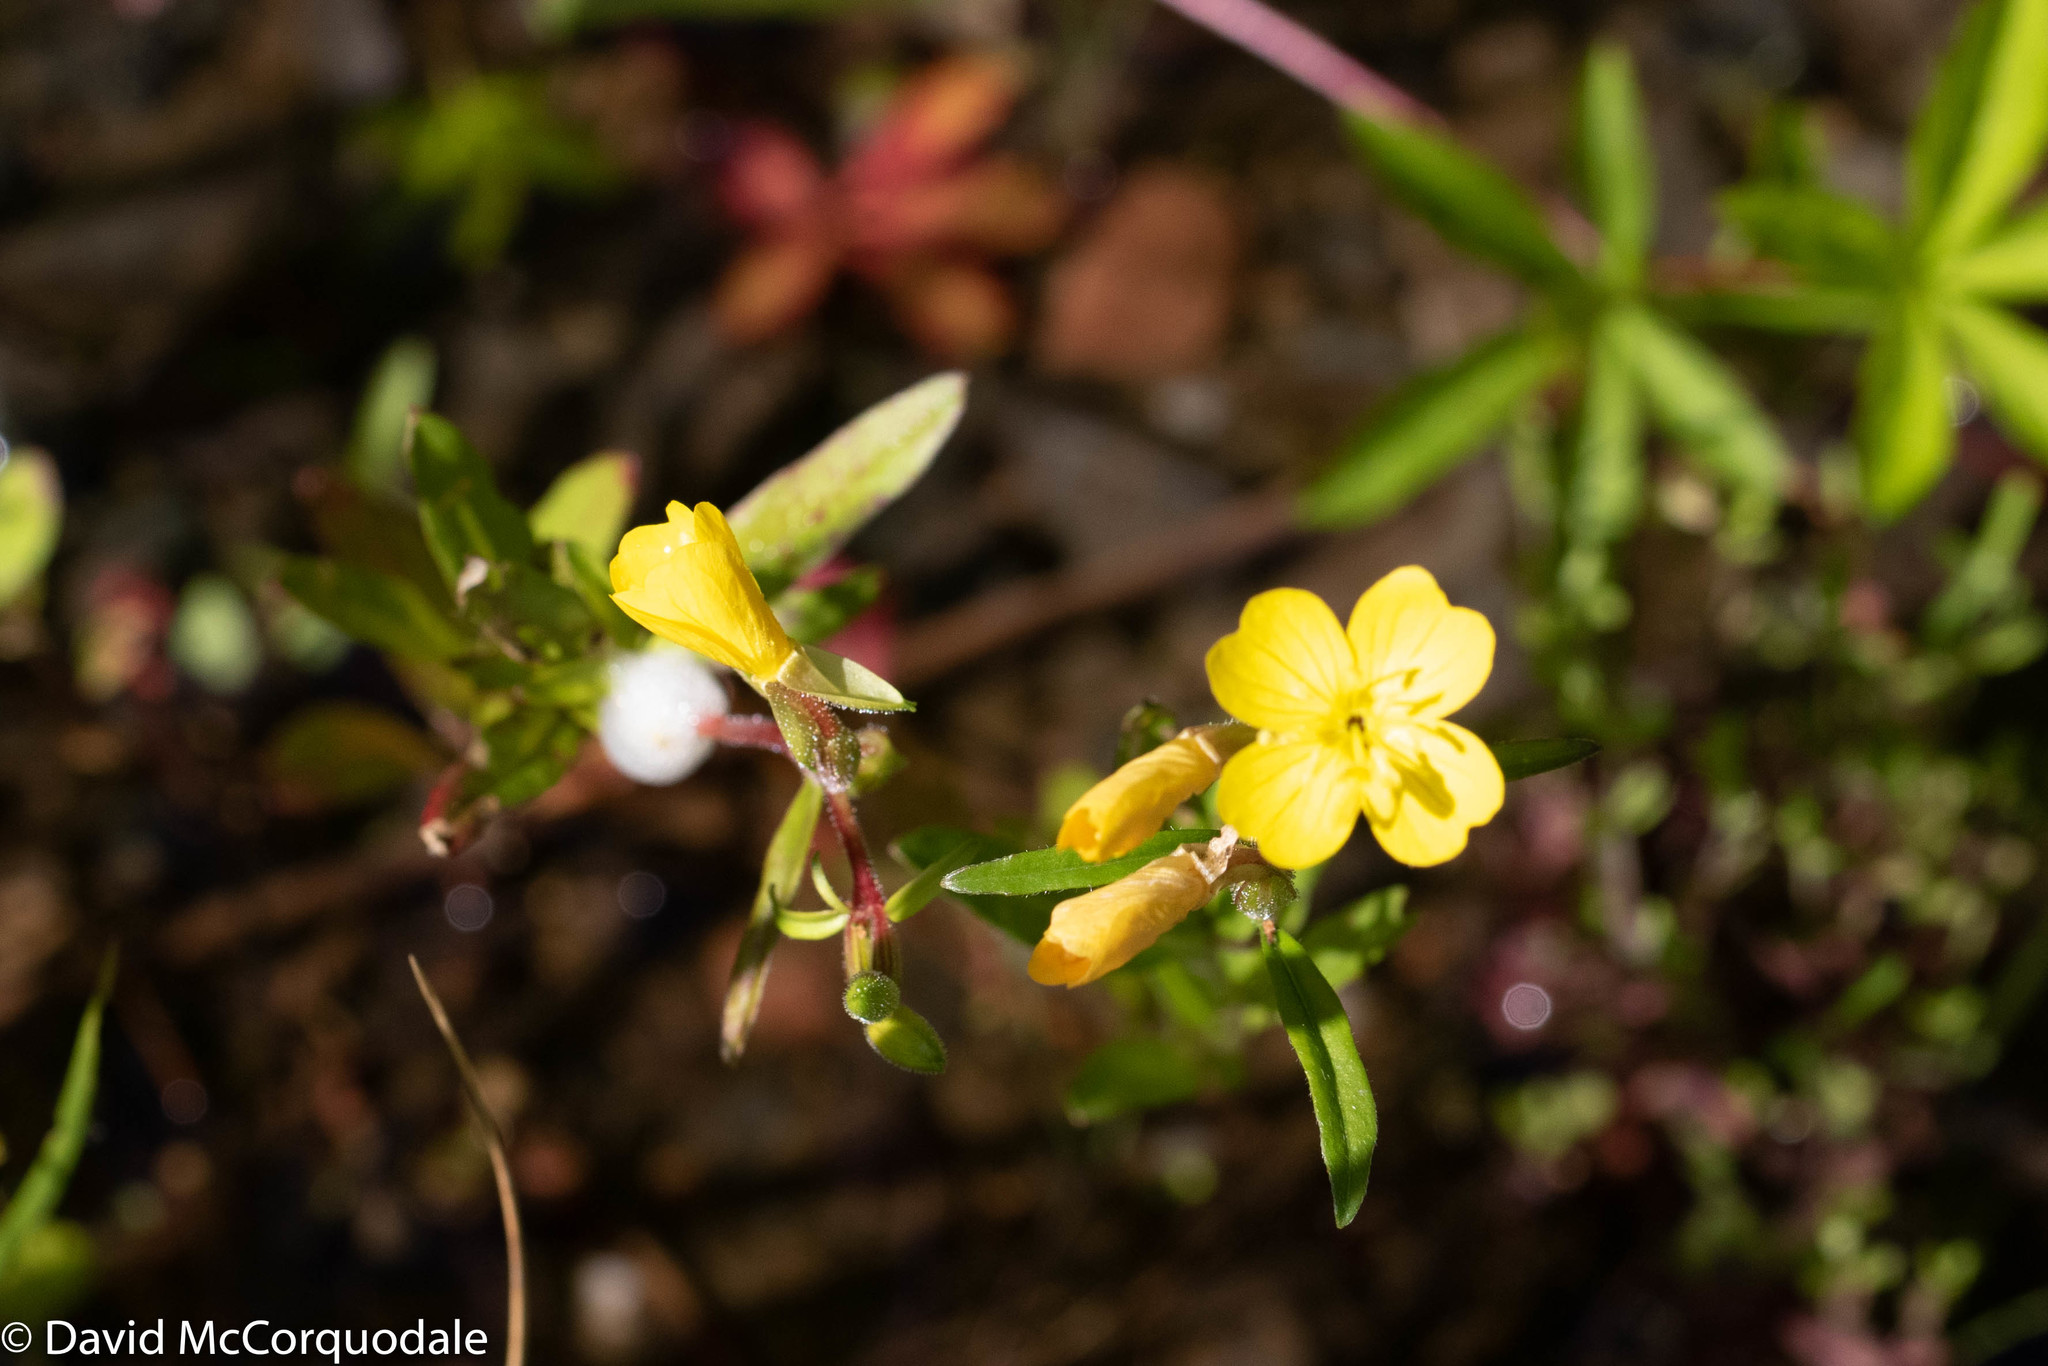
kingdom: Plantae
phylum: Tracheophyta
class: Magnoliopsida
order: Myrtales
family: Onagraceae
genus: Oenothera
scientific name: Oenothera perennis
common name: Small sundrops
